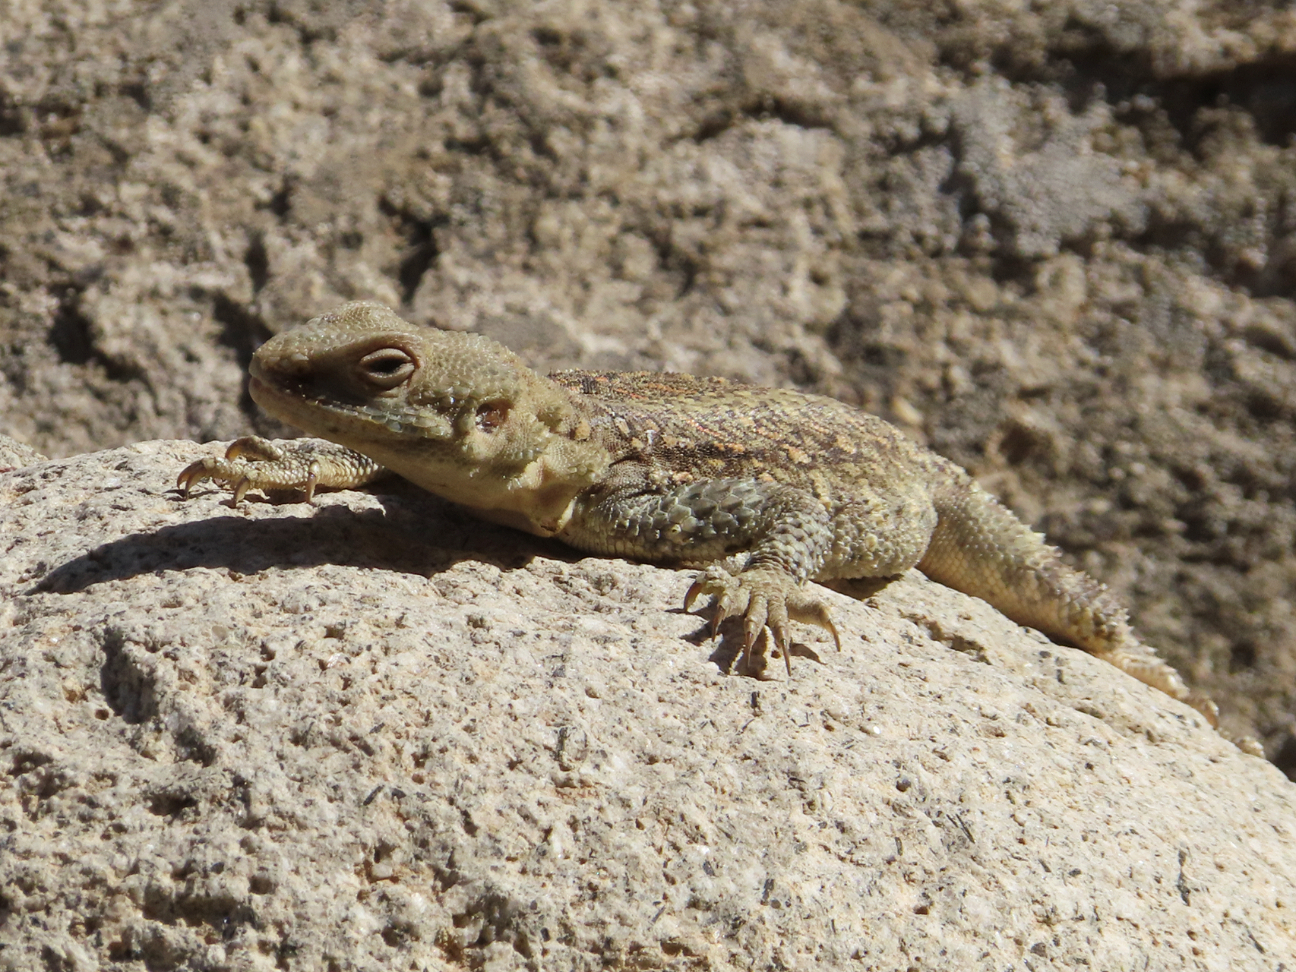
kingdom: Animalia
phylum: Chordata
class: Squamata
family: Agamidae
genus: Paralaudakia
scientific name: Paralaudakia caucasia
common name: Caucasian agama
